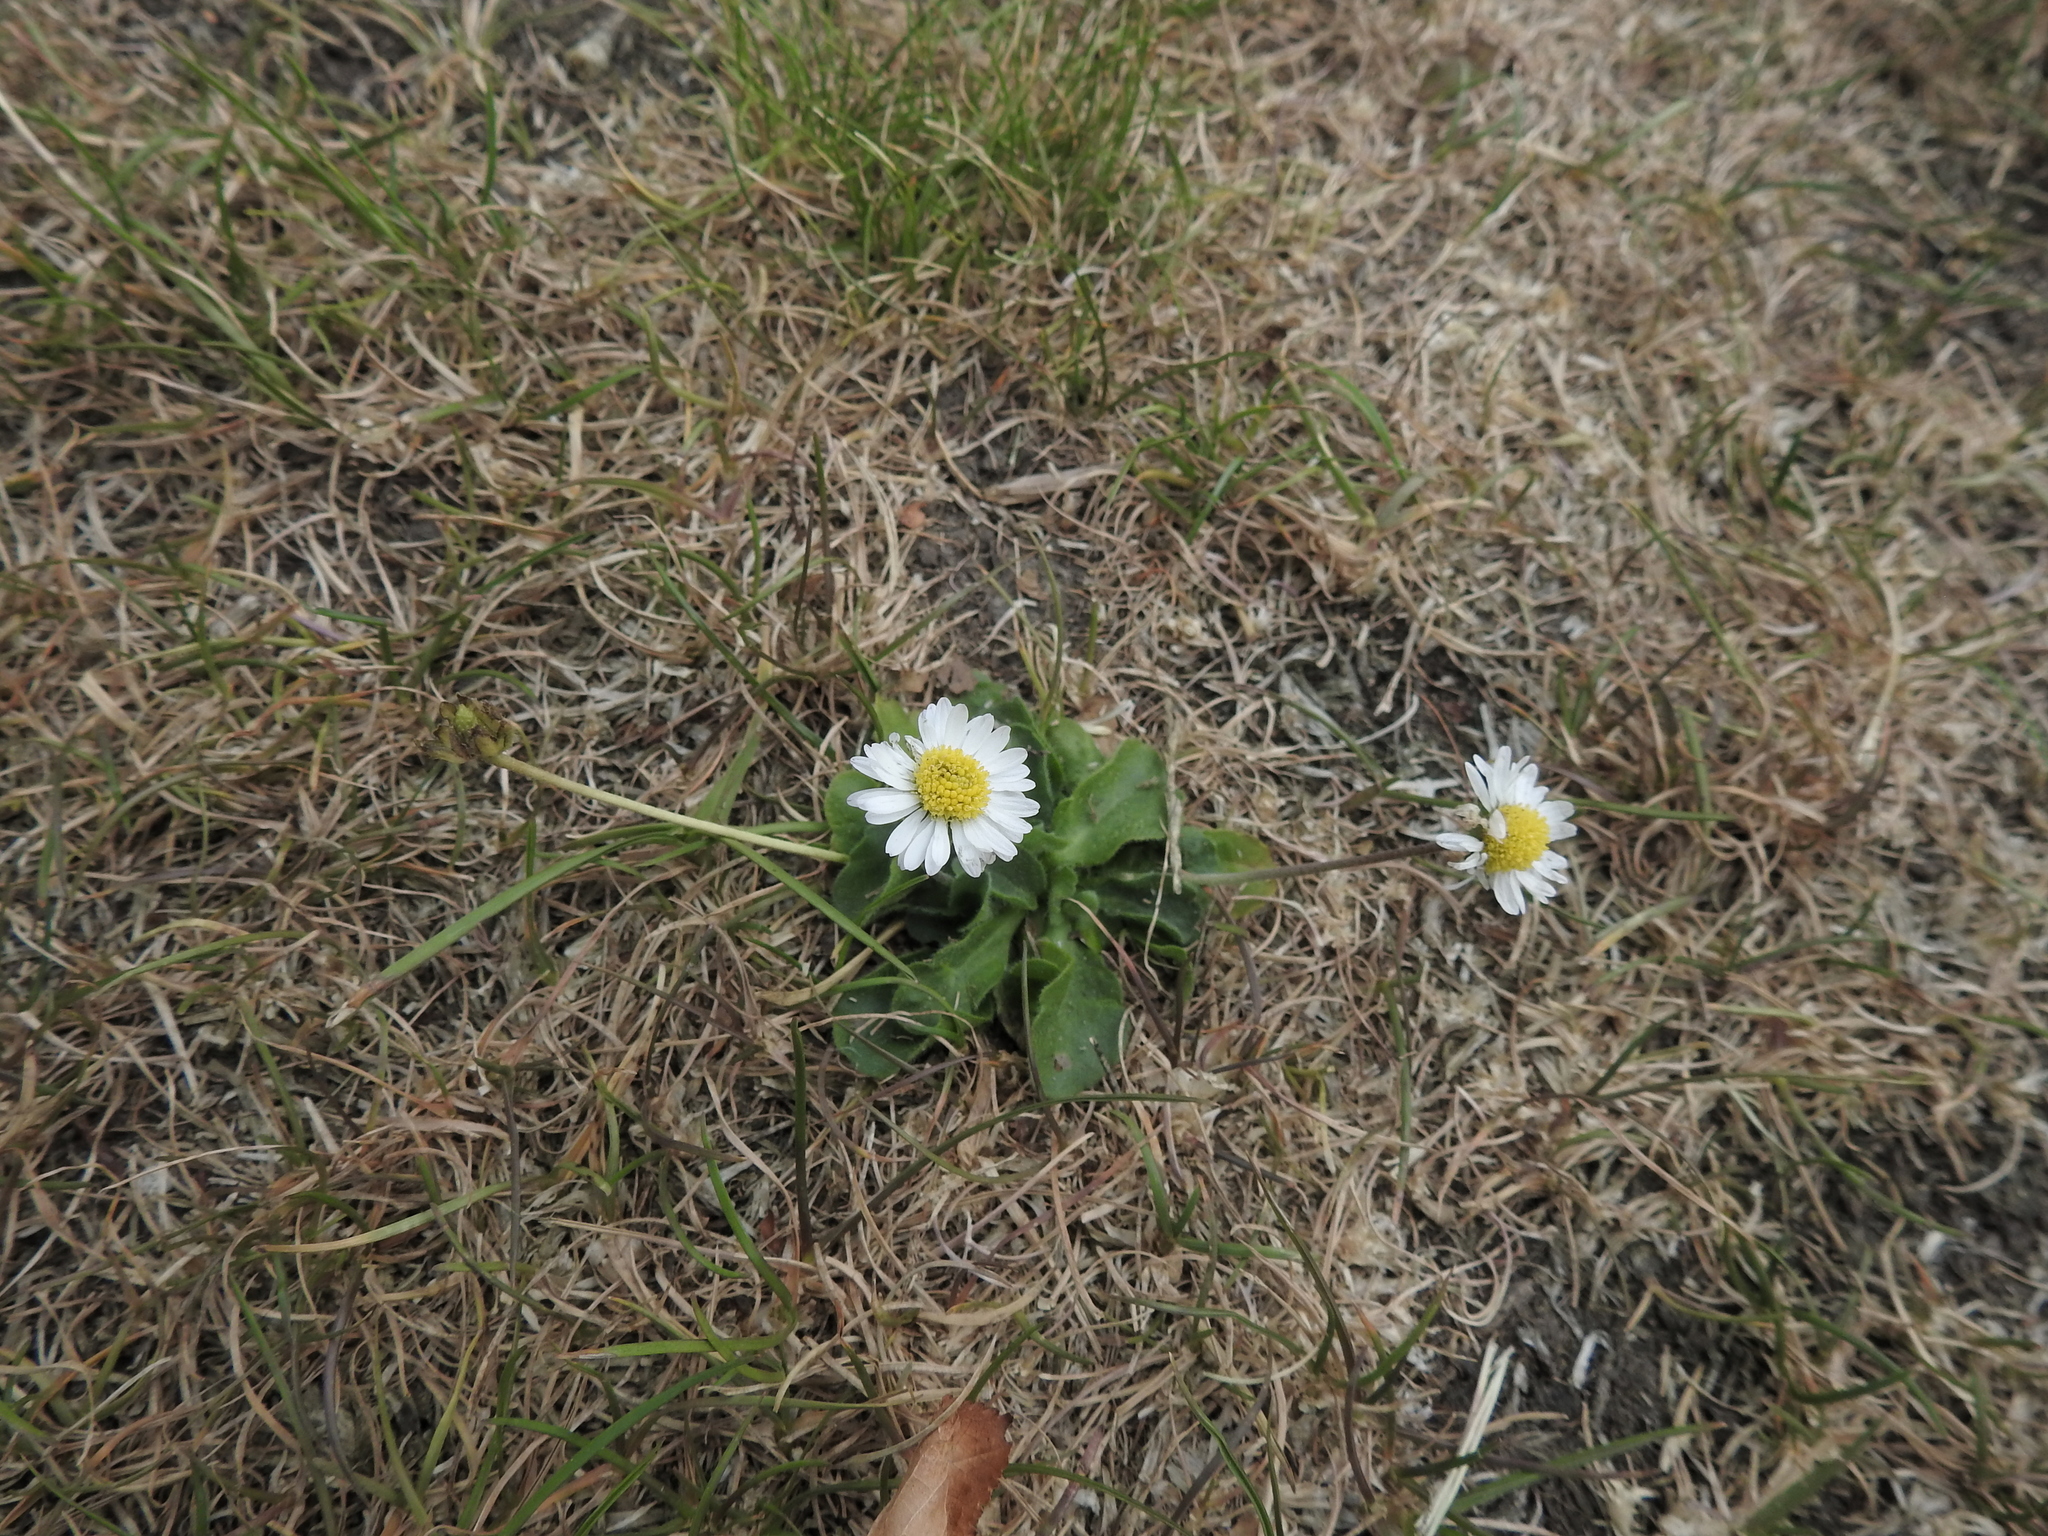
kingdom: Plantae
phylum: Tracheophyta
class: Magnoliopsida
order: Asterales
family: Asteraceae
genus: Bellis
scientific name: Bellis perennis
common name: Lawndaisy
